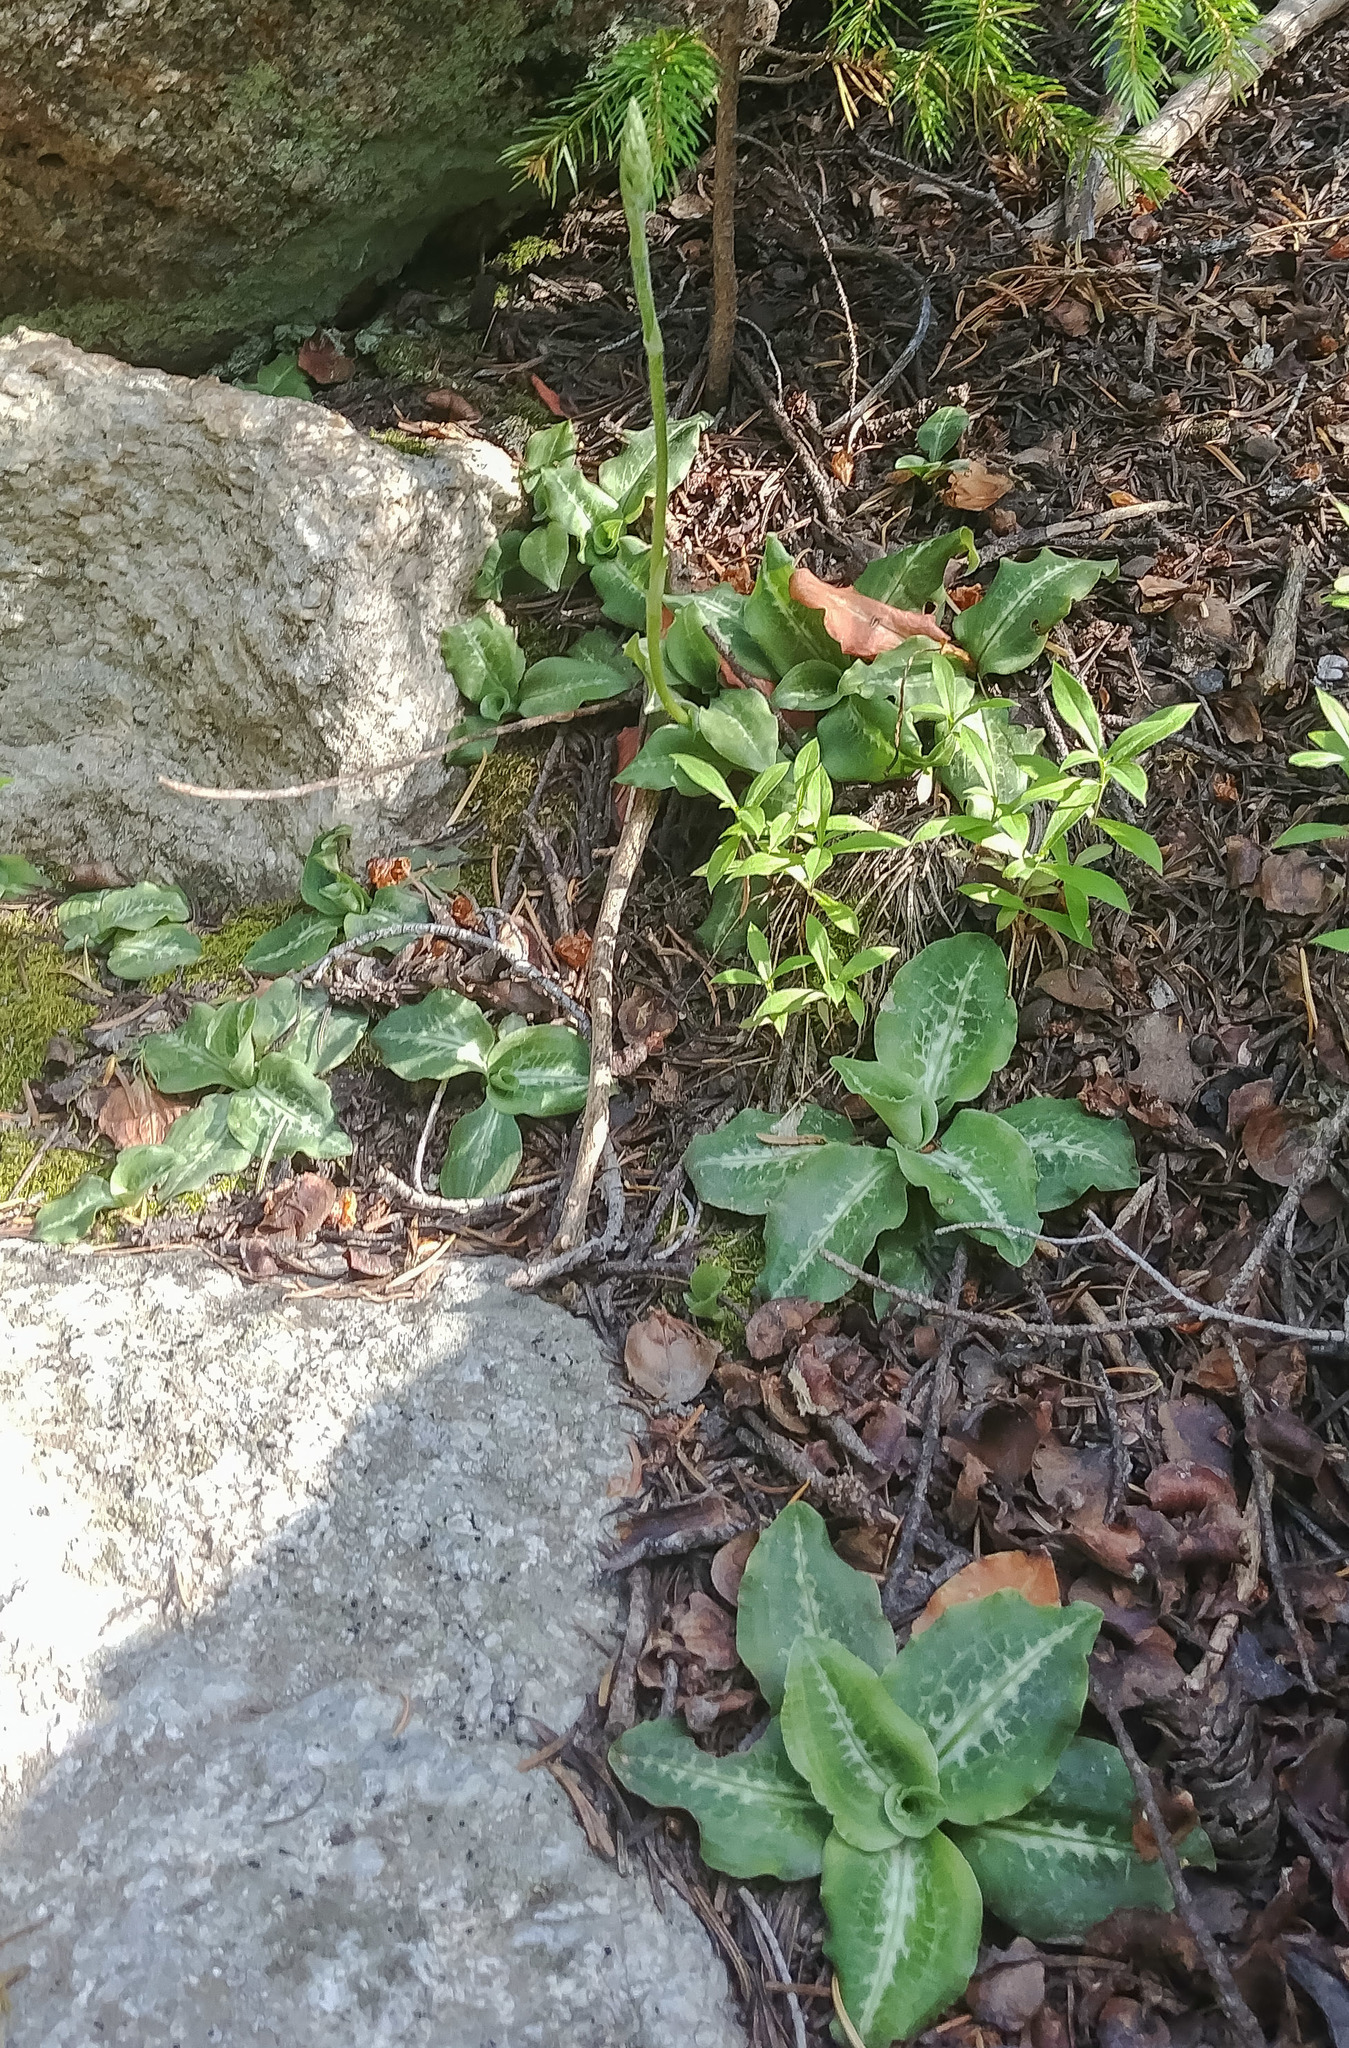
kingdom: Plantae
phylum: Tracheophyta
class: Liliopsida
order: Asparagales
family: Orchidaceae
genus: Goodyera
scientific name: Goodyera oblongifolia
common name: Giant rattlesnake-plantain
